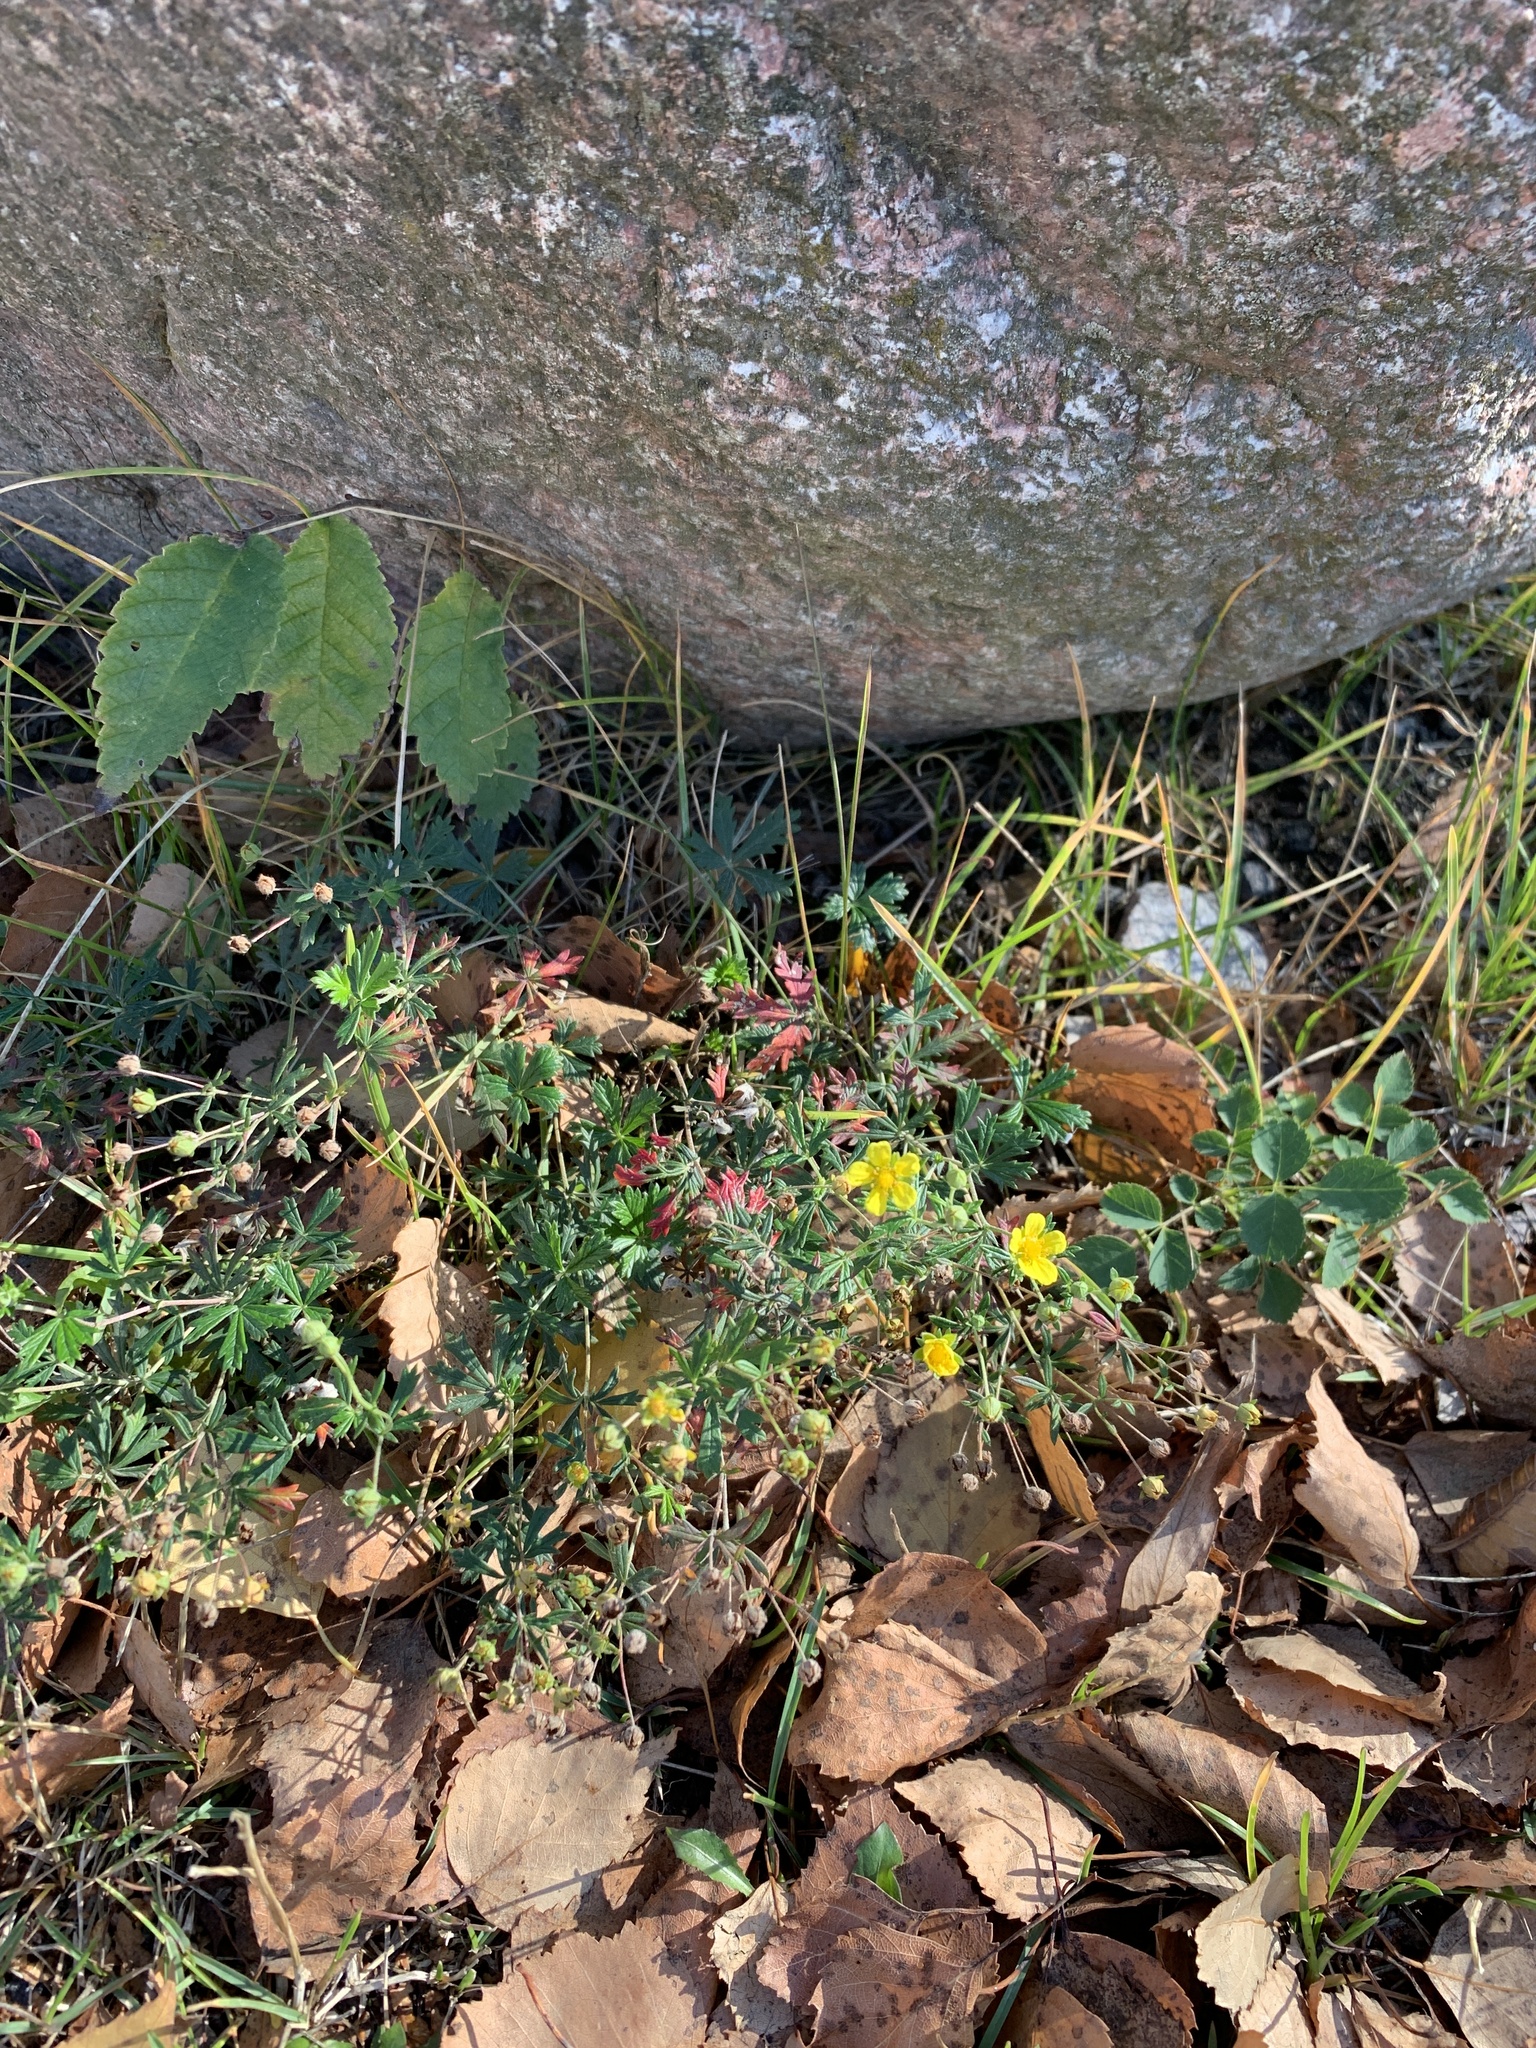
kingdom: Plantae
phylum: Tracheophyta
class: Magnoliopsida
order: Rosales
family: Rosaceae
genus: Potentilla
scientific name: Potentilla argentea
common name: Hoary cinquefoil
